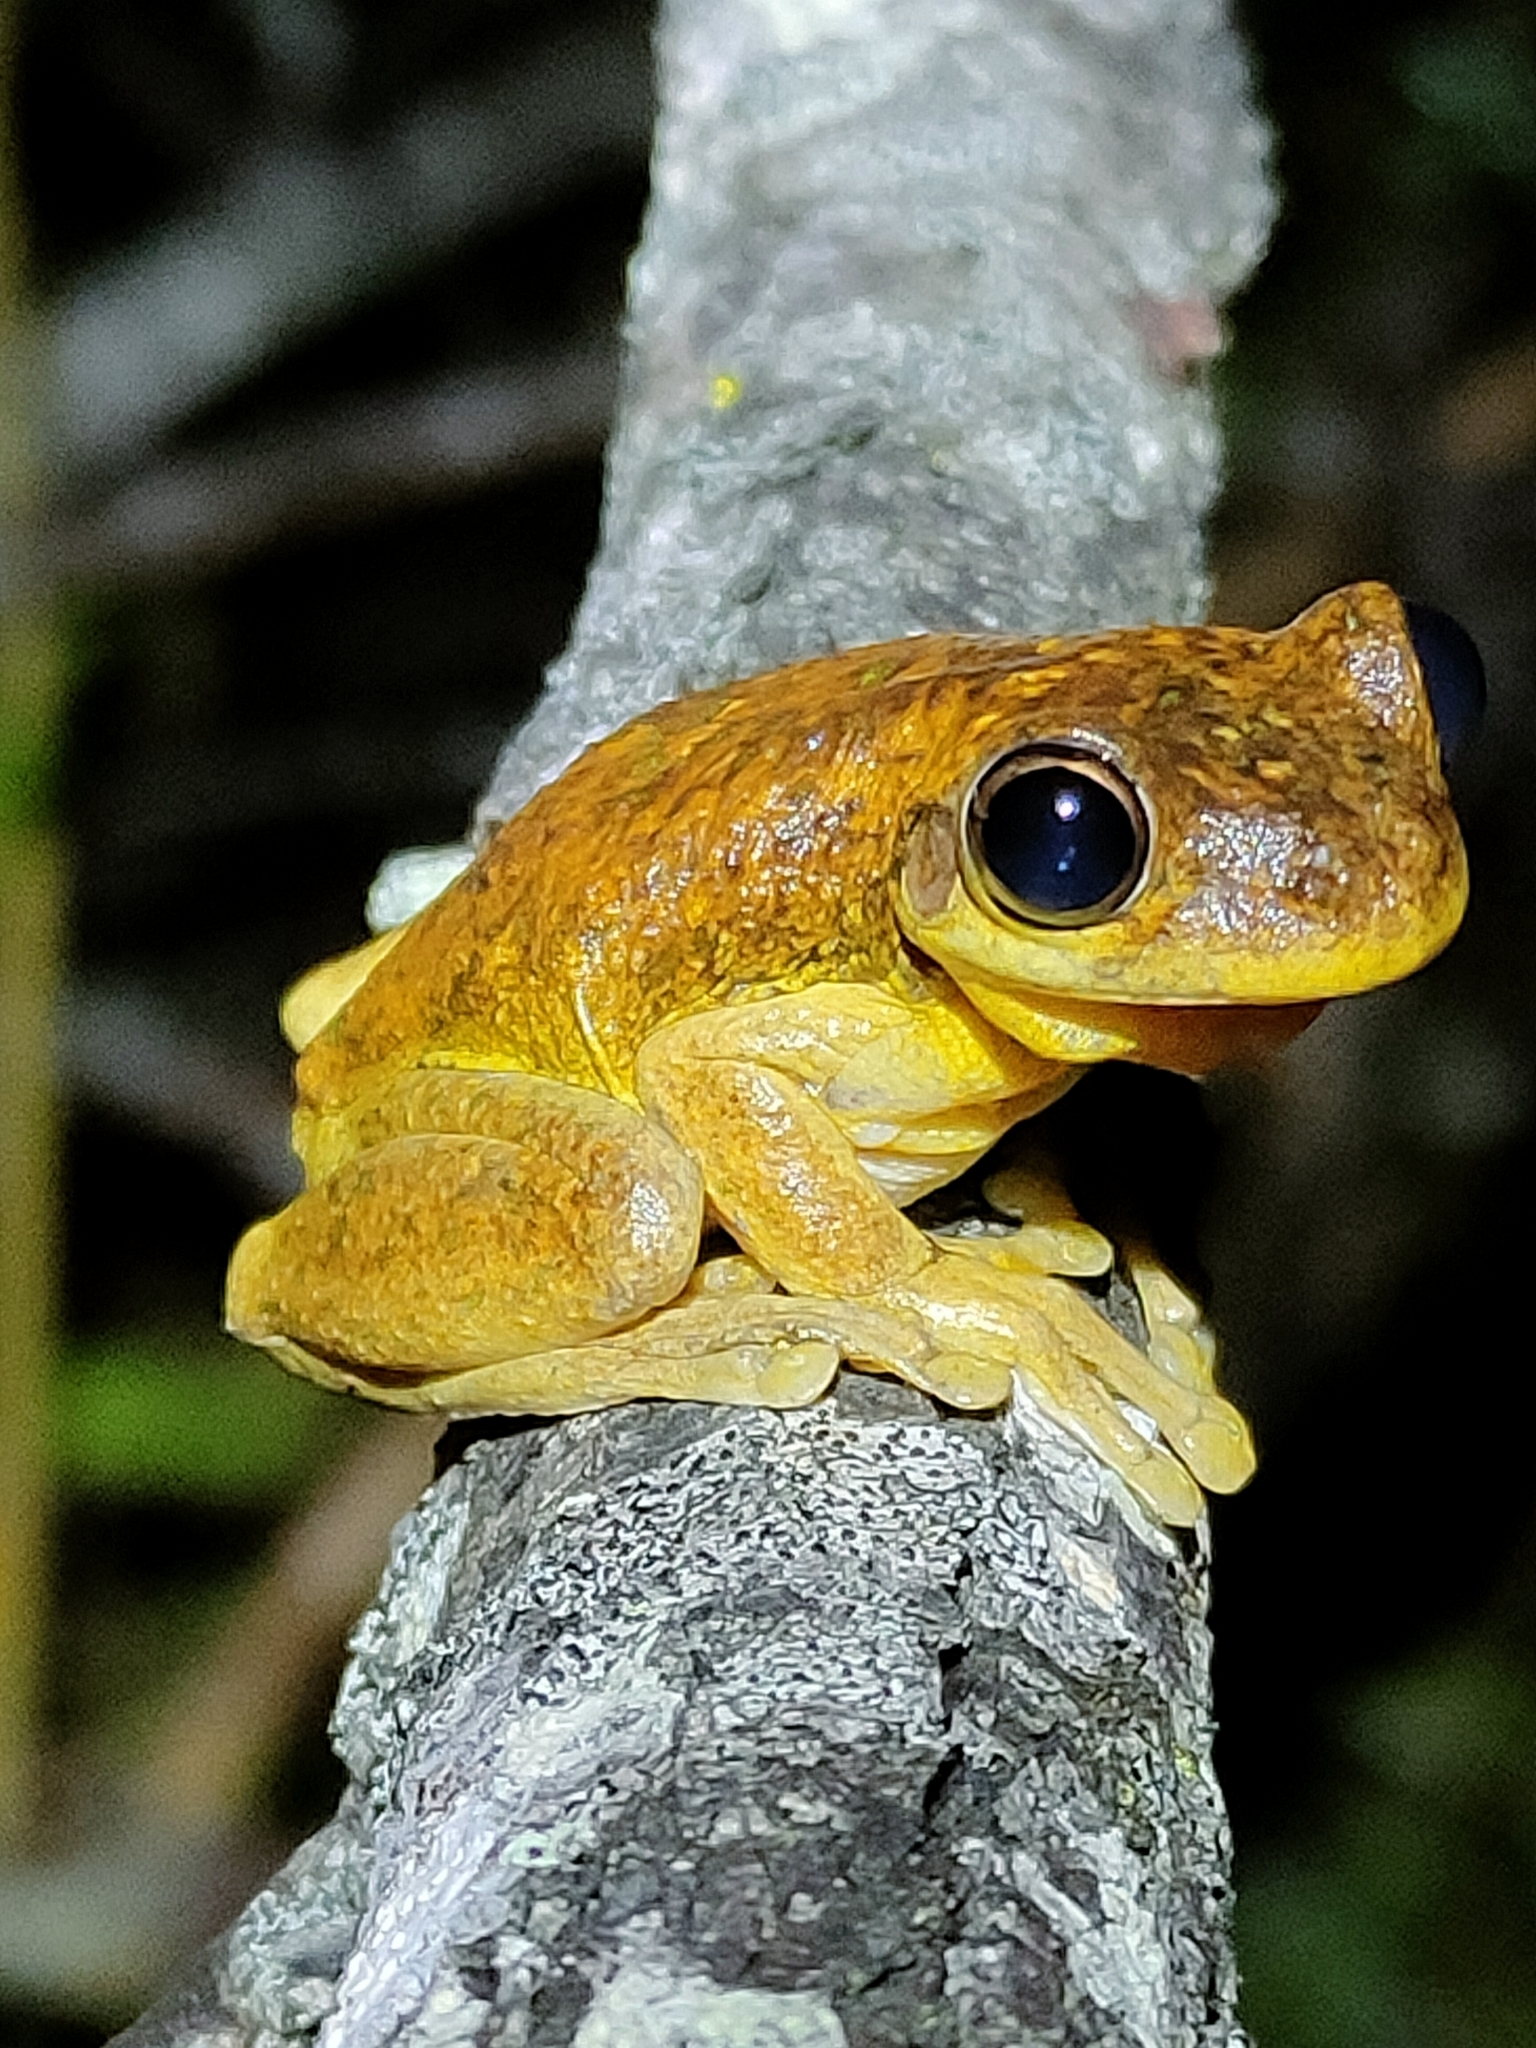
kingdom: Animalia
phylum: Chordata
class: Amphibia
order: Anura
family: Pelodryadidae
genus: Litoria
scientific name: Litoria tyleri
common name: Laughing tree frog
